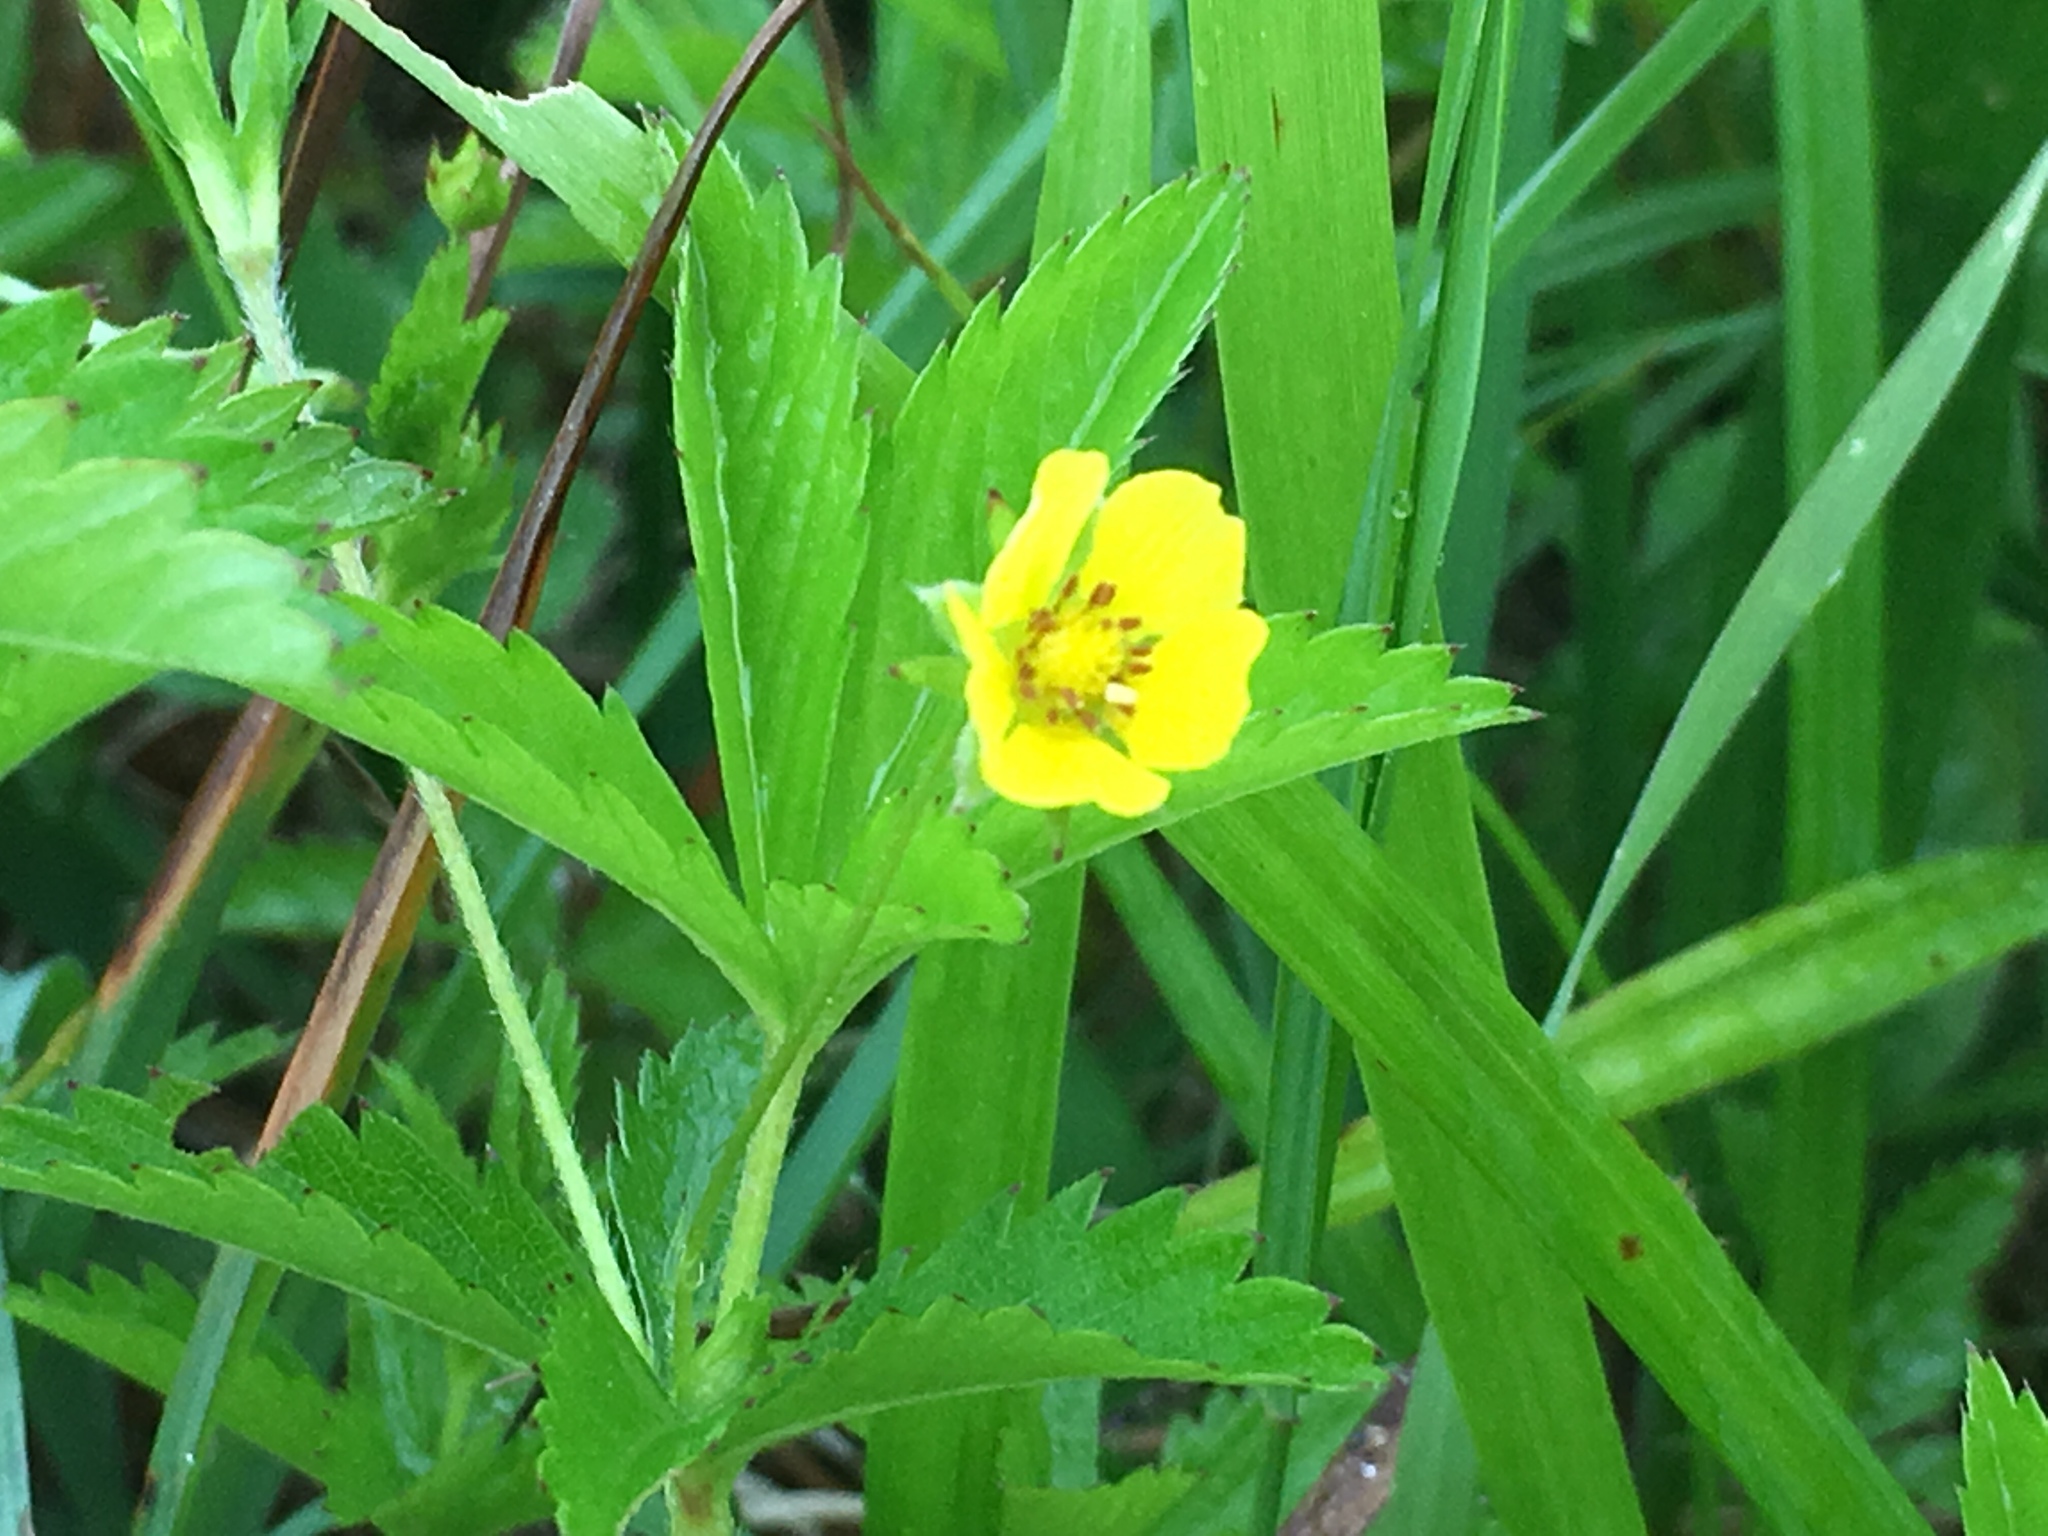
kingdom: Plantae
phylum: Tracheophyta
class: Magnoliopsida
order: Rosales
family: Rosaceae
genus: Potentilla
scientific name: Potentilla simplex
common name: Old field cinquefoil
